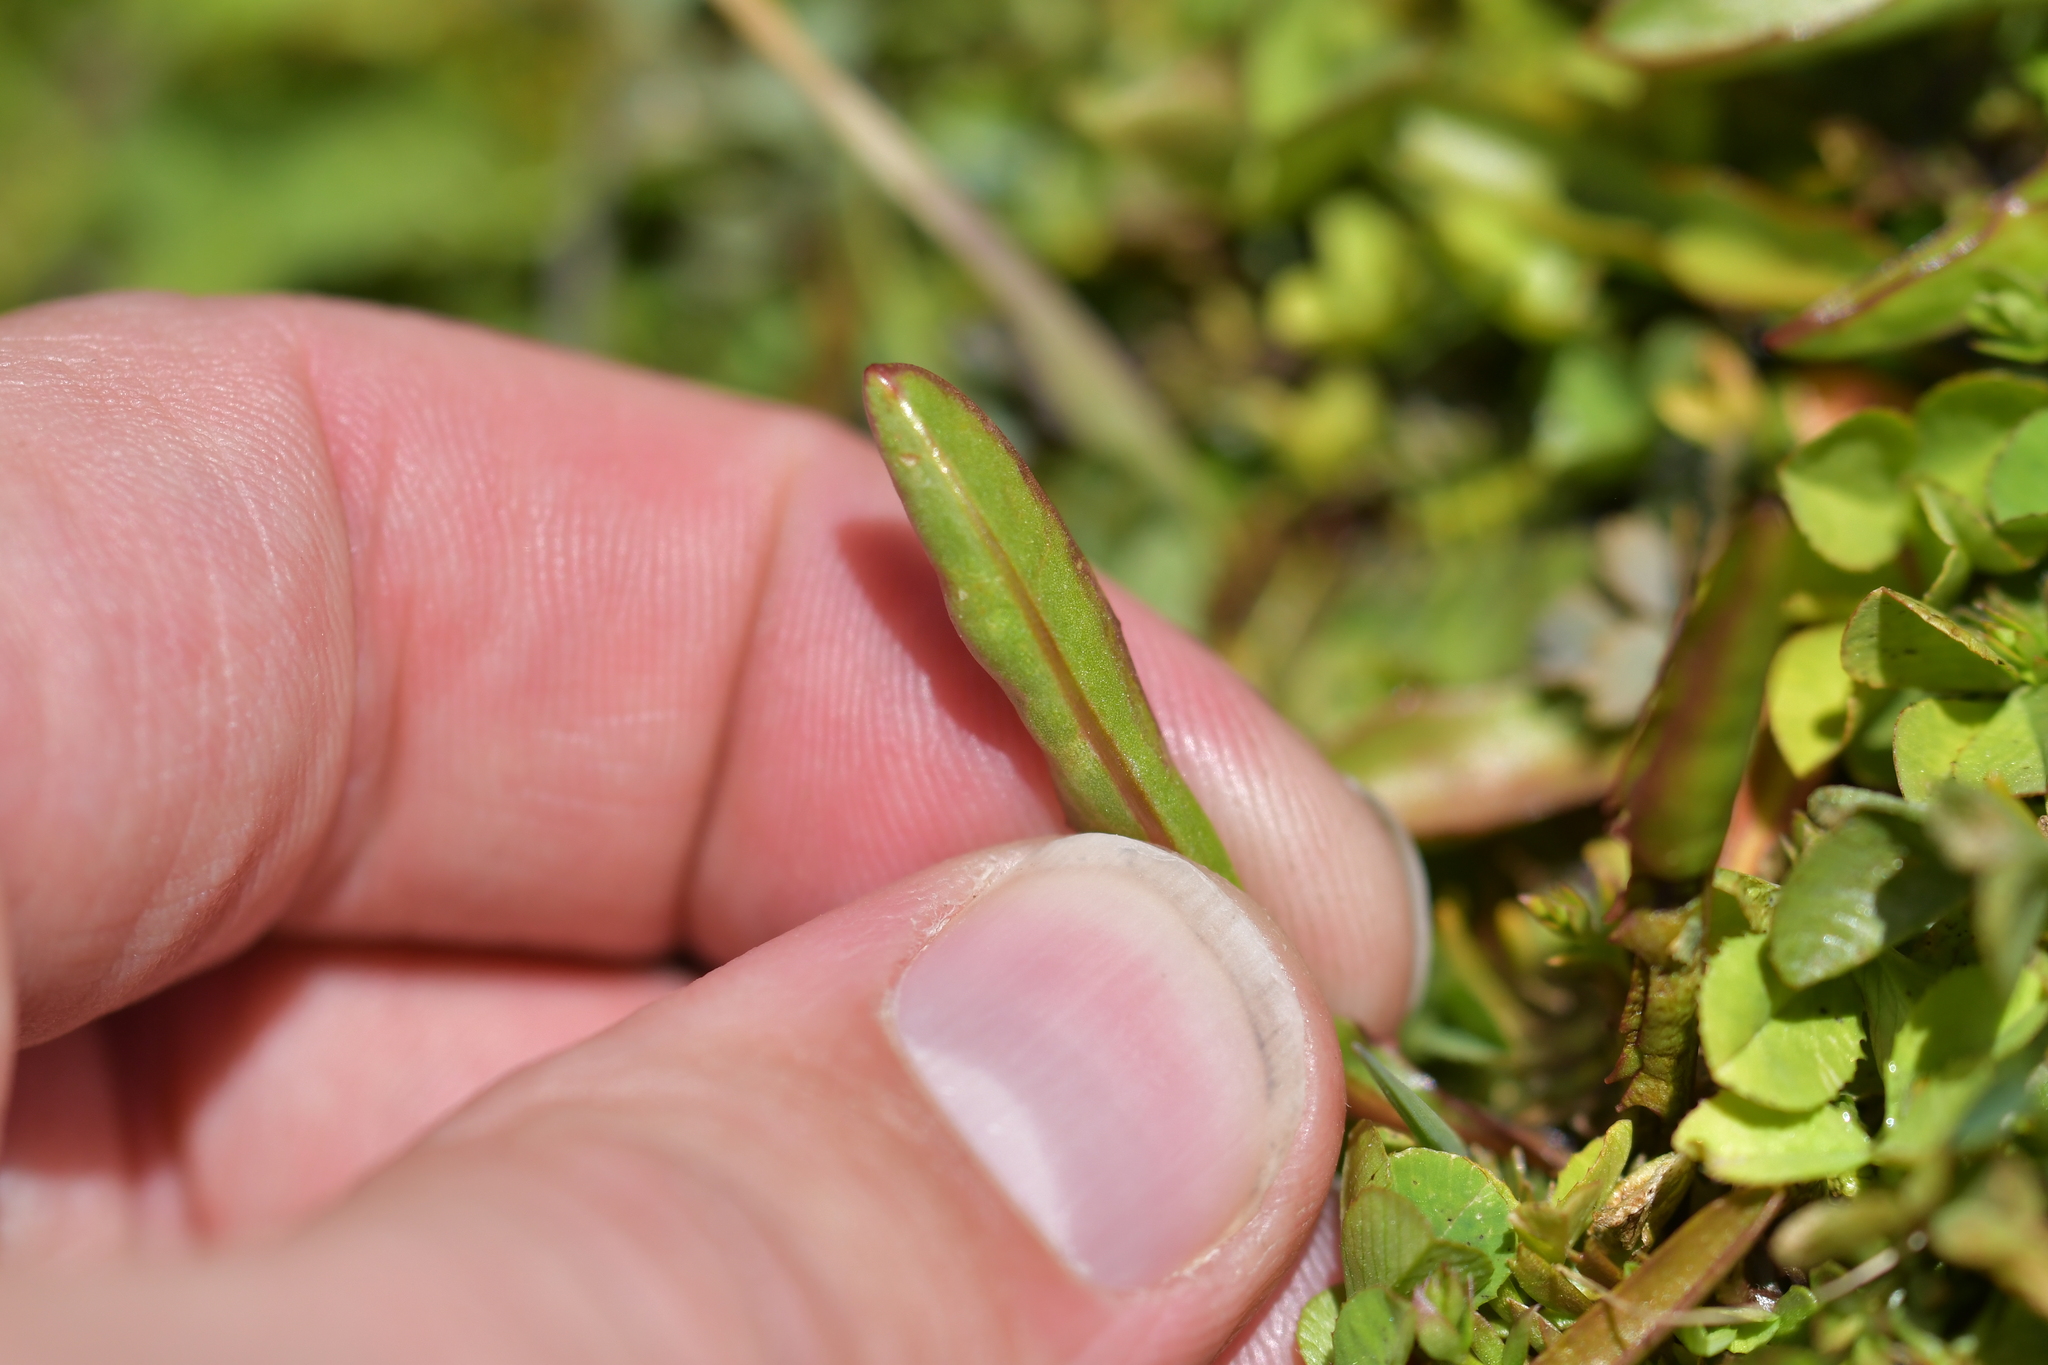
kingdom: Plantae
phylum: Tracheophyta
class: Magnoliopsida
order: Asterales
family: Asteraceae
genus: Microseris
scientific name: Microseris scapigera
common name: Yam daisy
